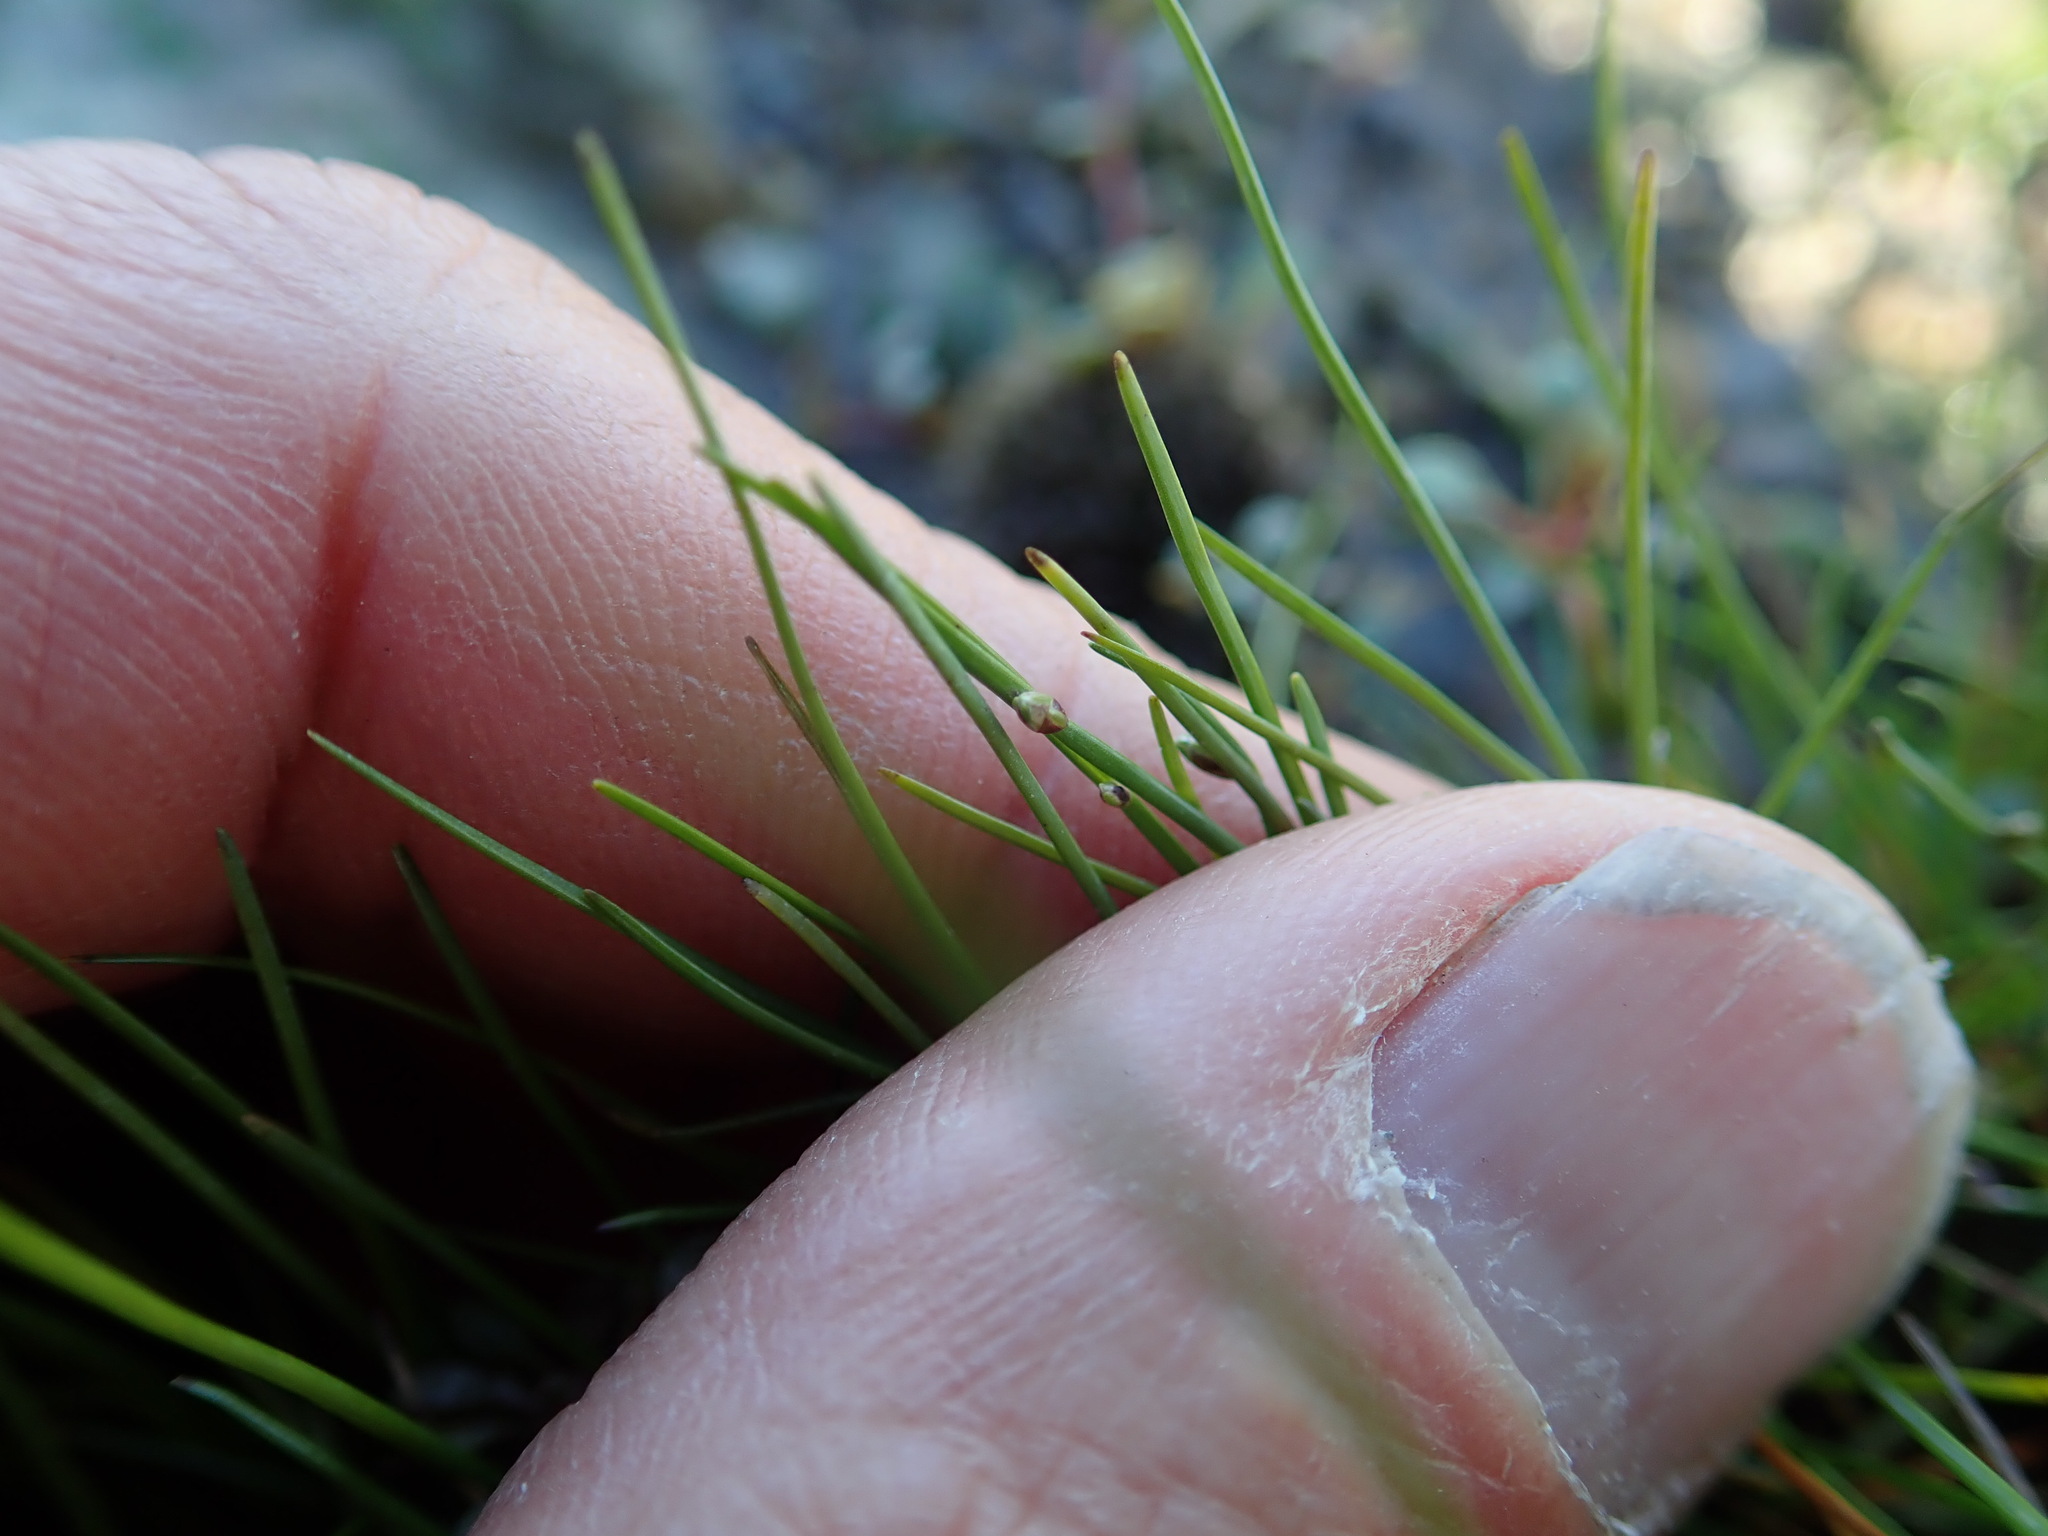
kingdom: Plantae
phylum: Tracheophyta
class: Liliopsida
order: Poales
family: Cyperaceae
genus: Isolepis
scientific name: Isolepis cernua
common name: Slender club-rush
